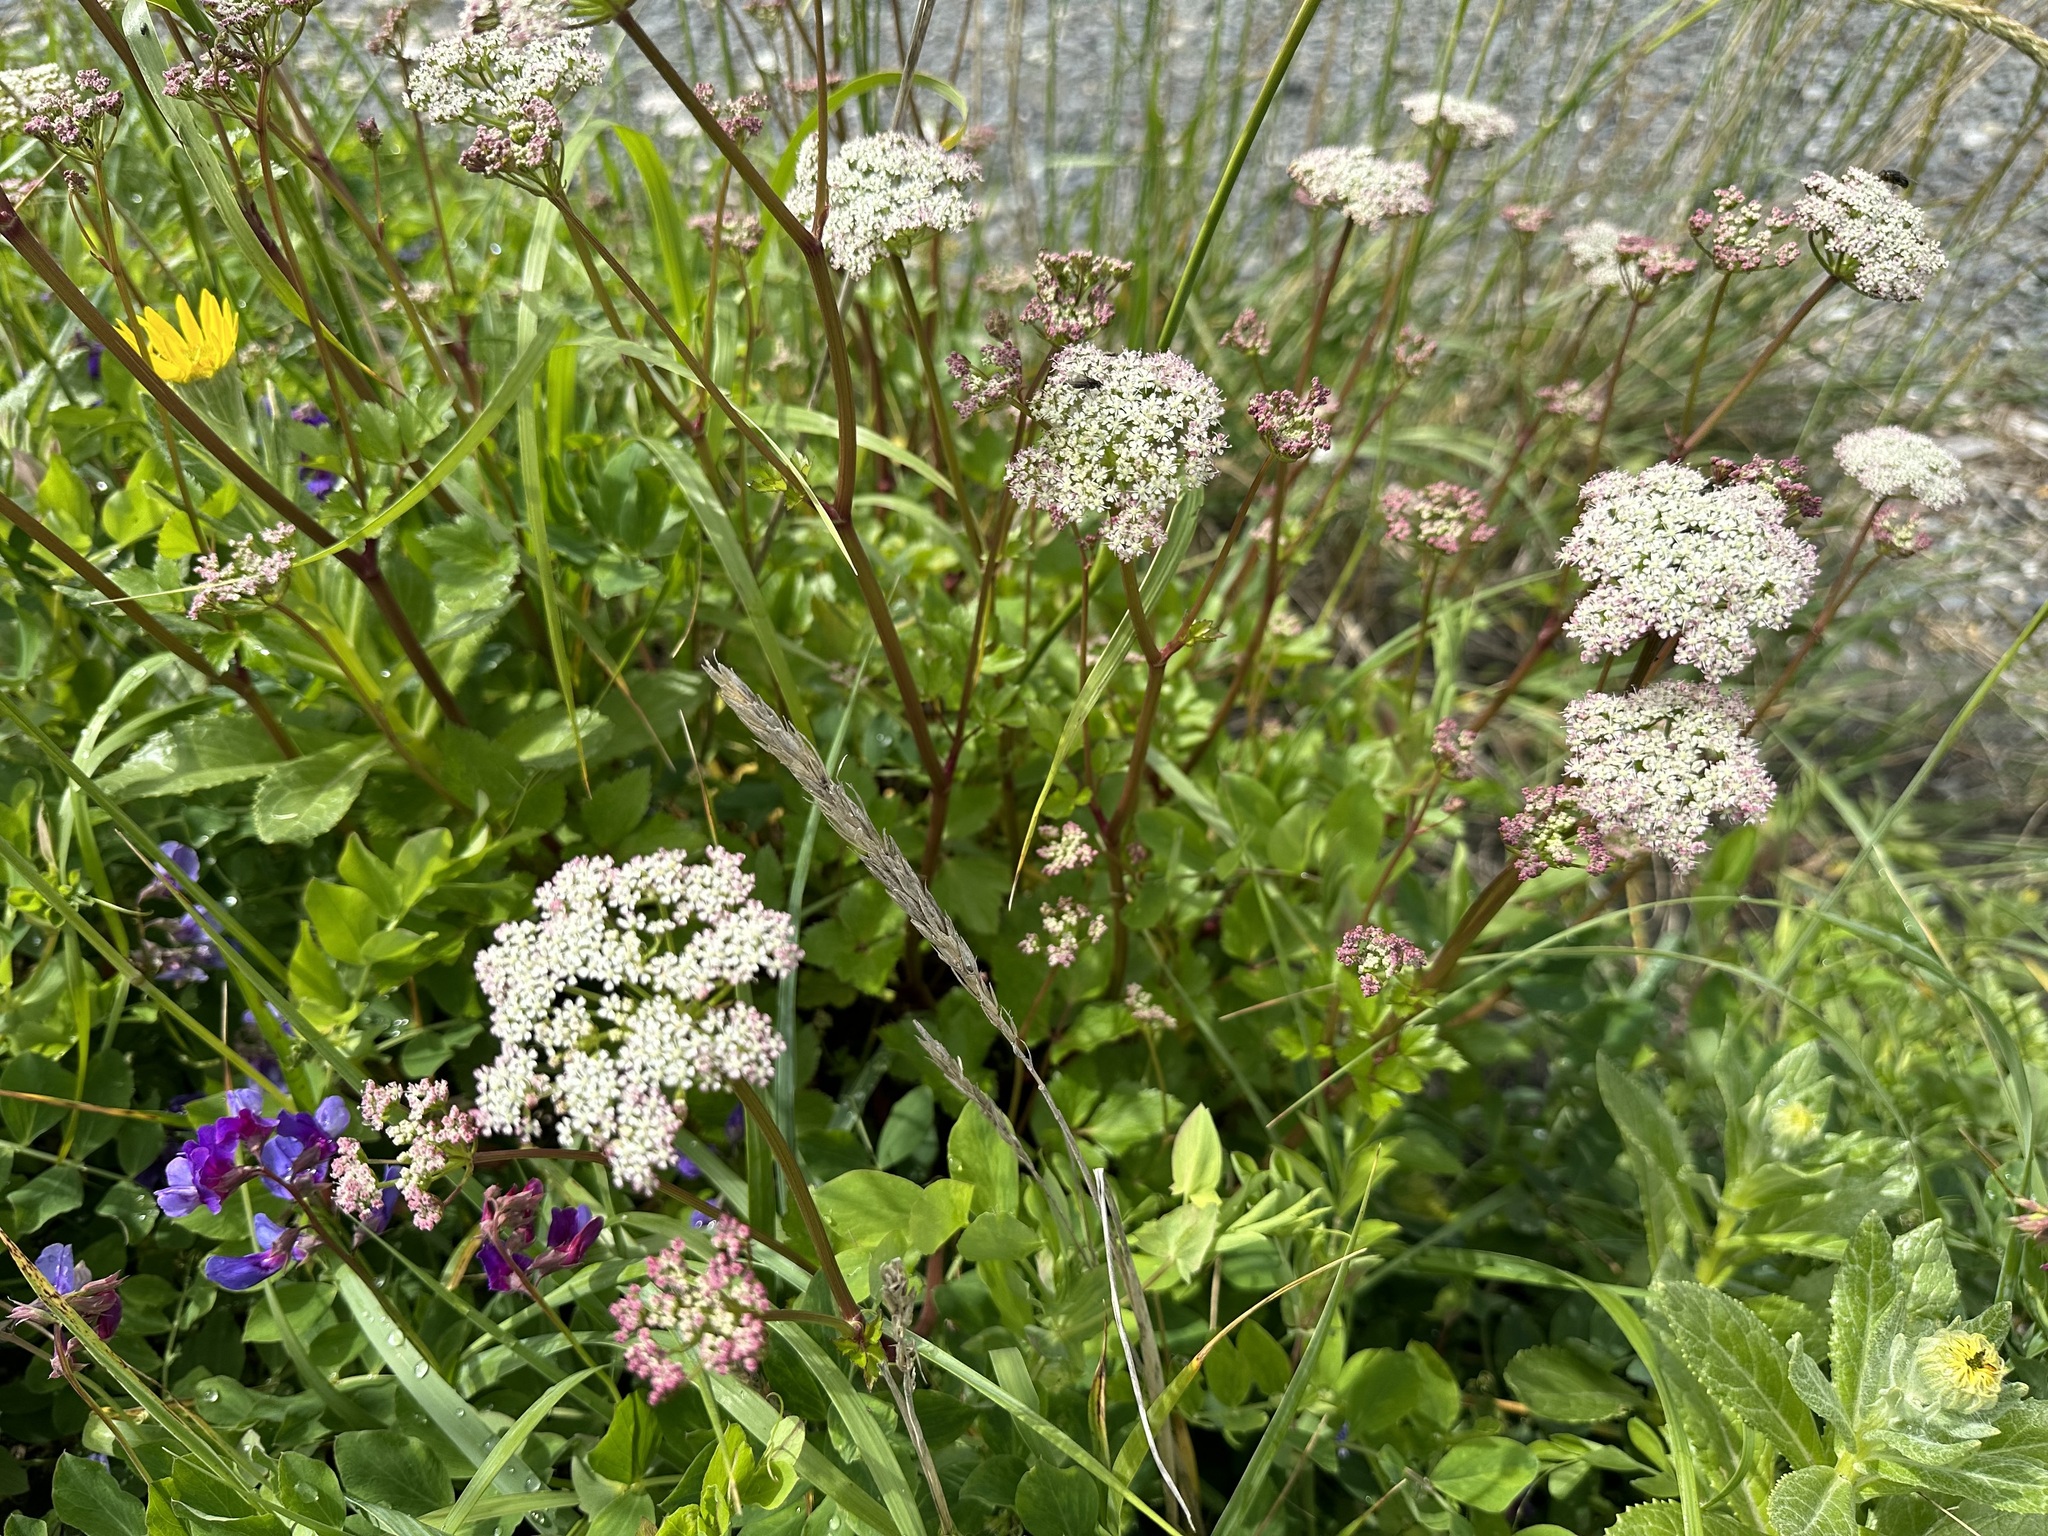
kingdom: Plantae
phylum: Tracheophyta
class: Magnoliopsida
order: Apiales
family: Apiaceae
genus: Ligusticum
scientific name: Ligusticum scothicum
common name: Beach lovage
